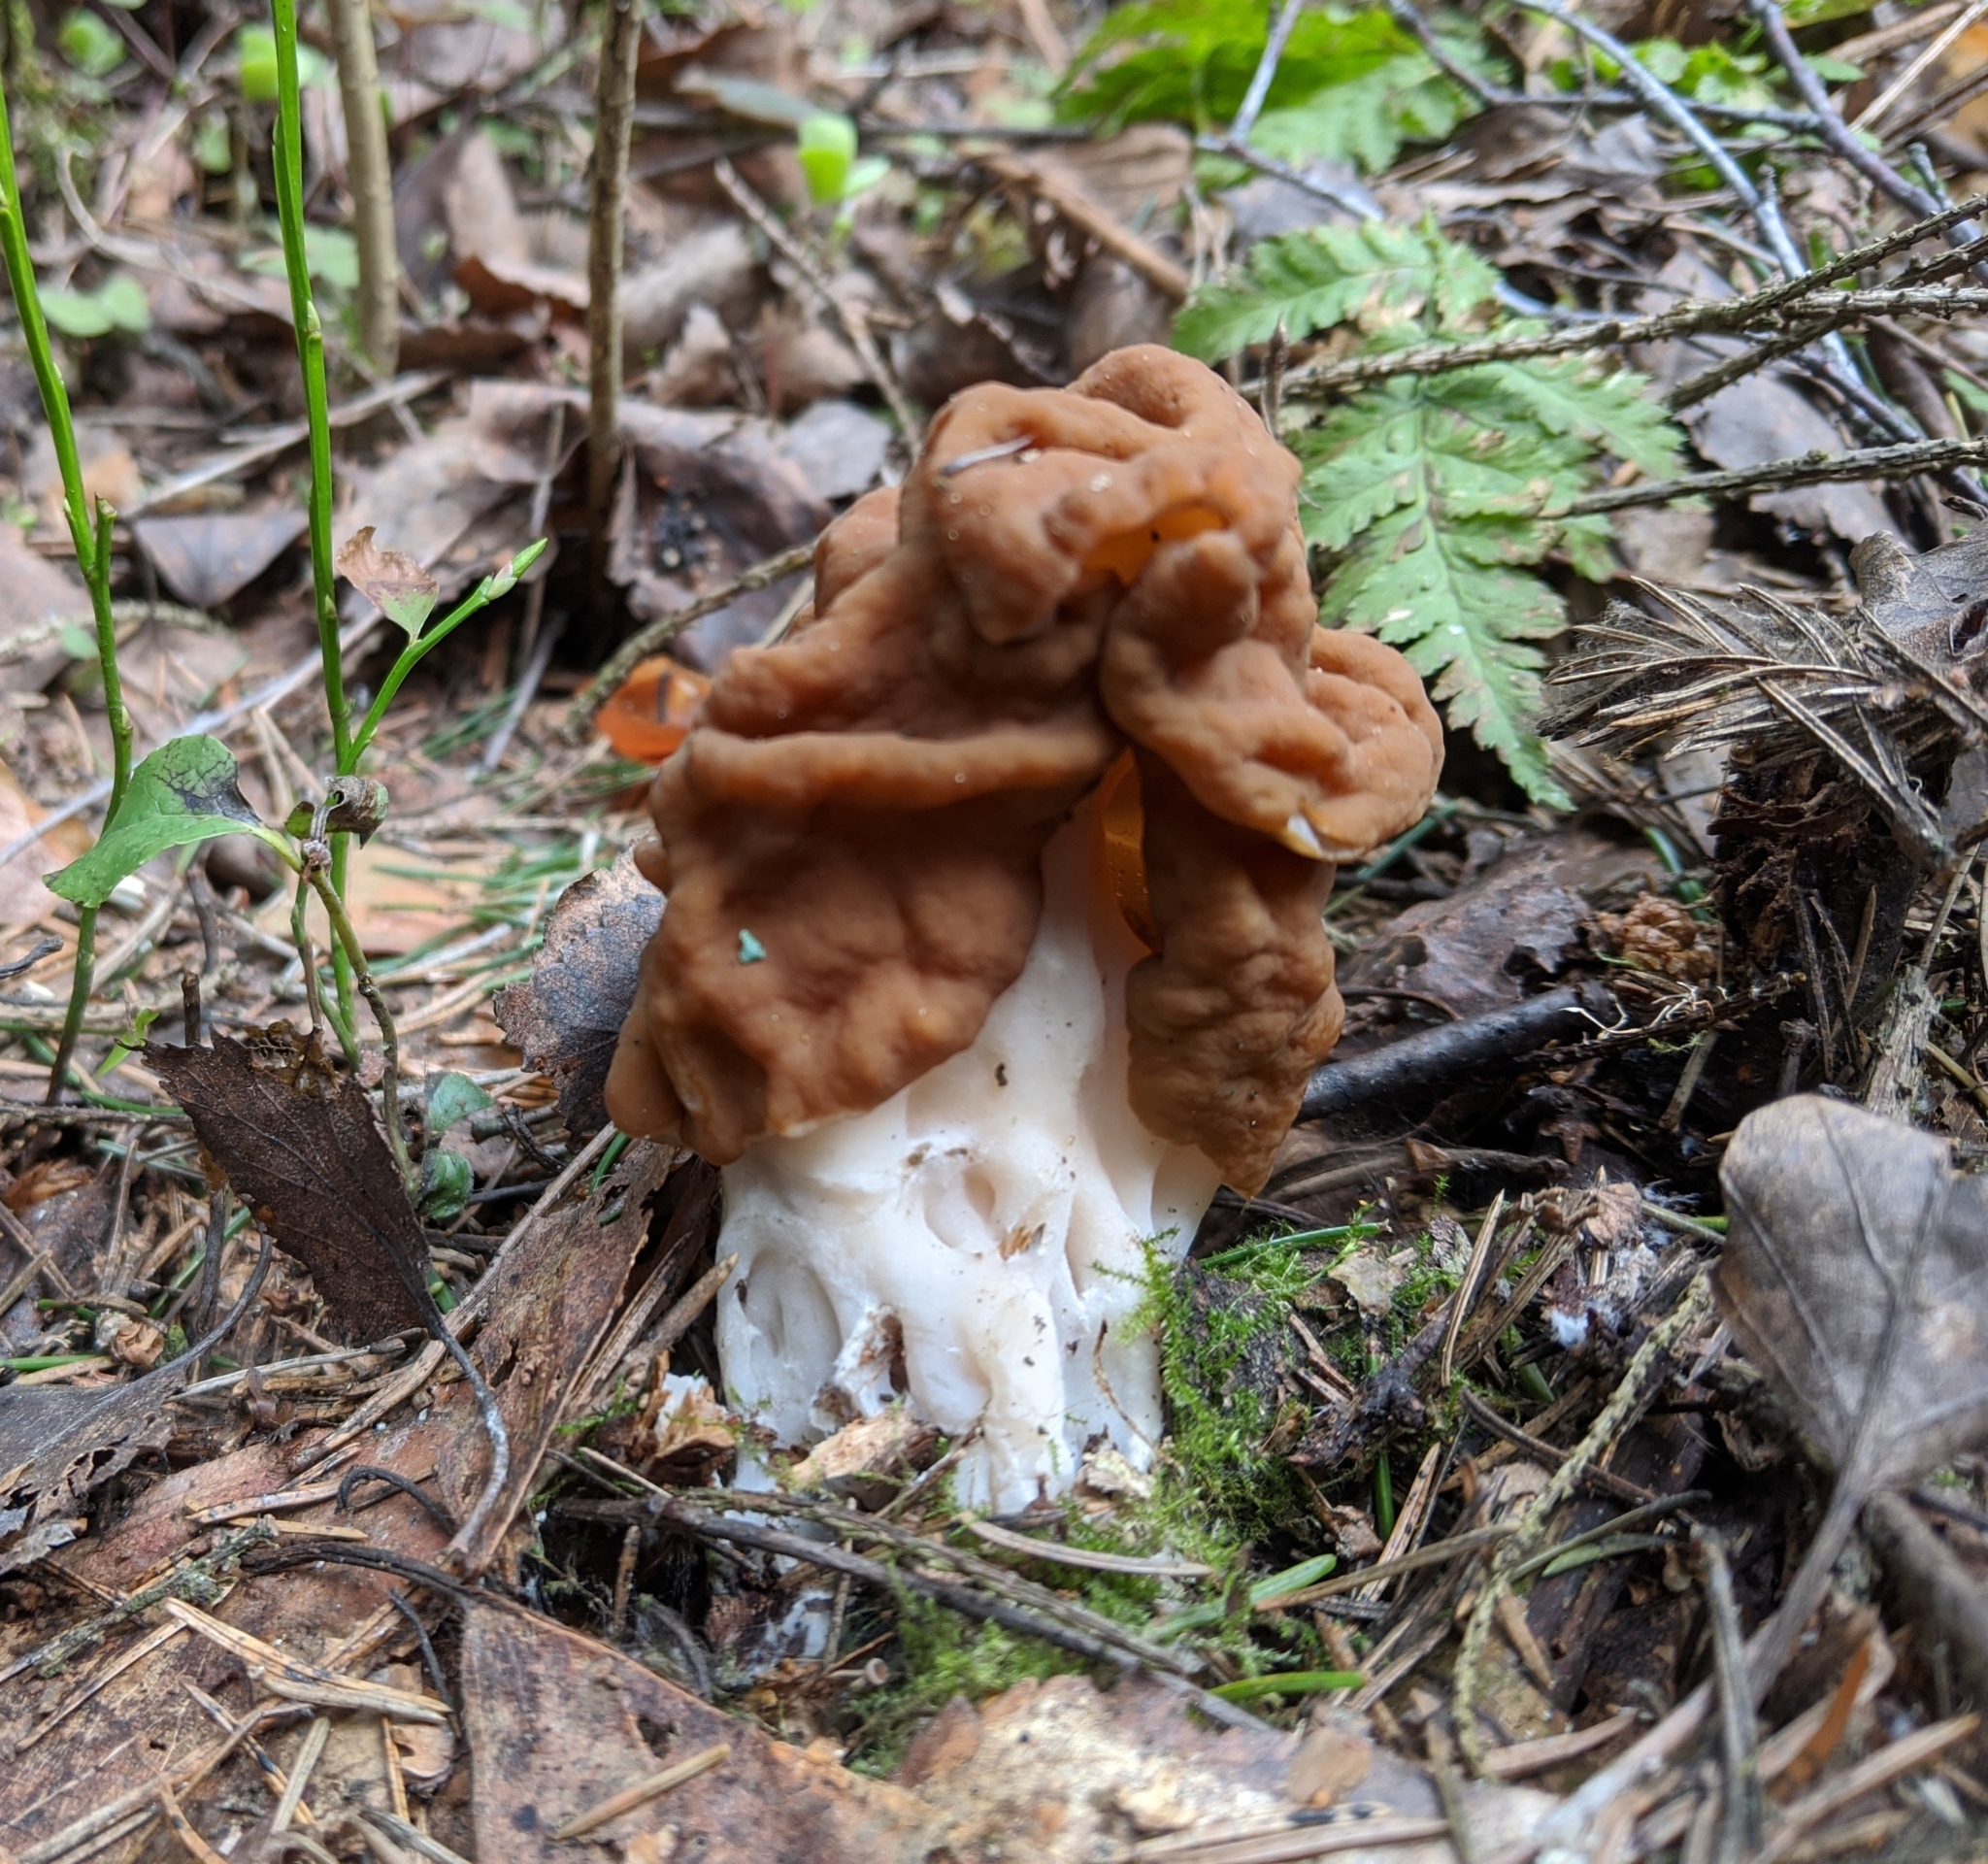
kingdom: Fungi
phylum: Ascomycota
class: Pezizomycetes
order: Pezizales
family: Discinaceae
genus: Gyromitra
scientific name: Gyromitra gigas
